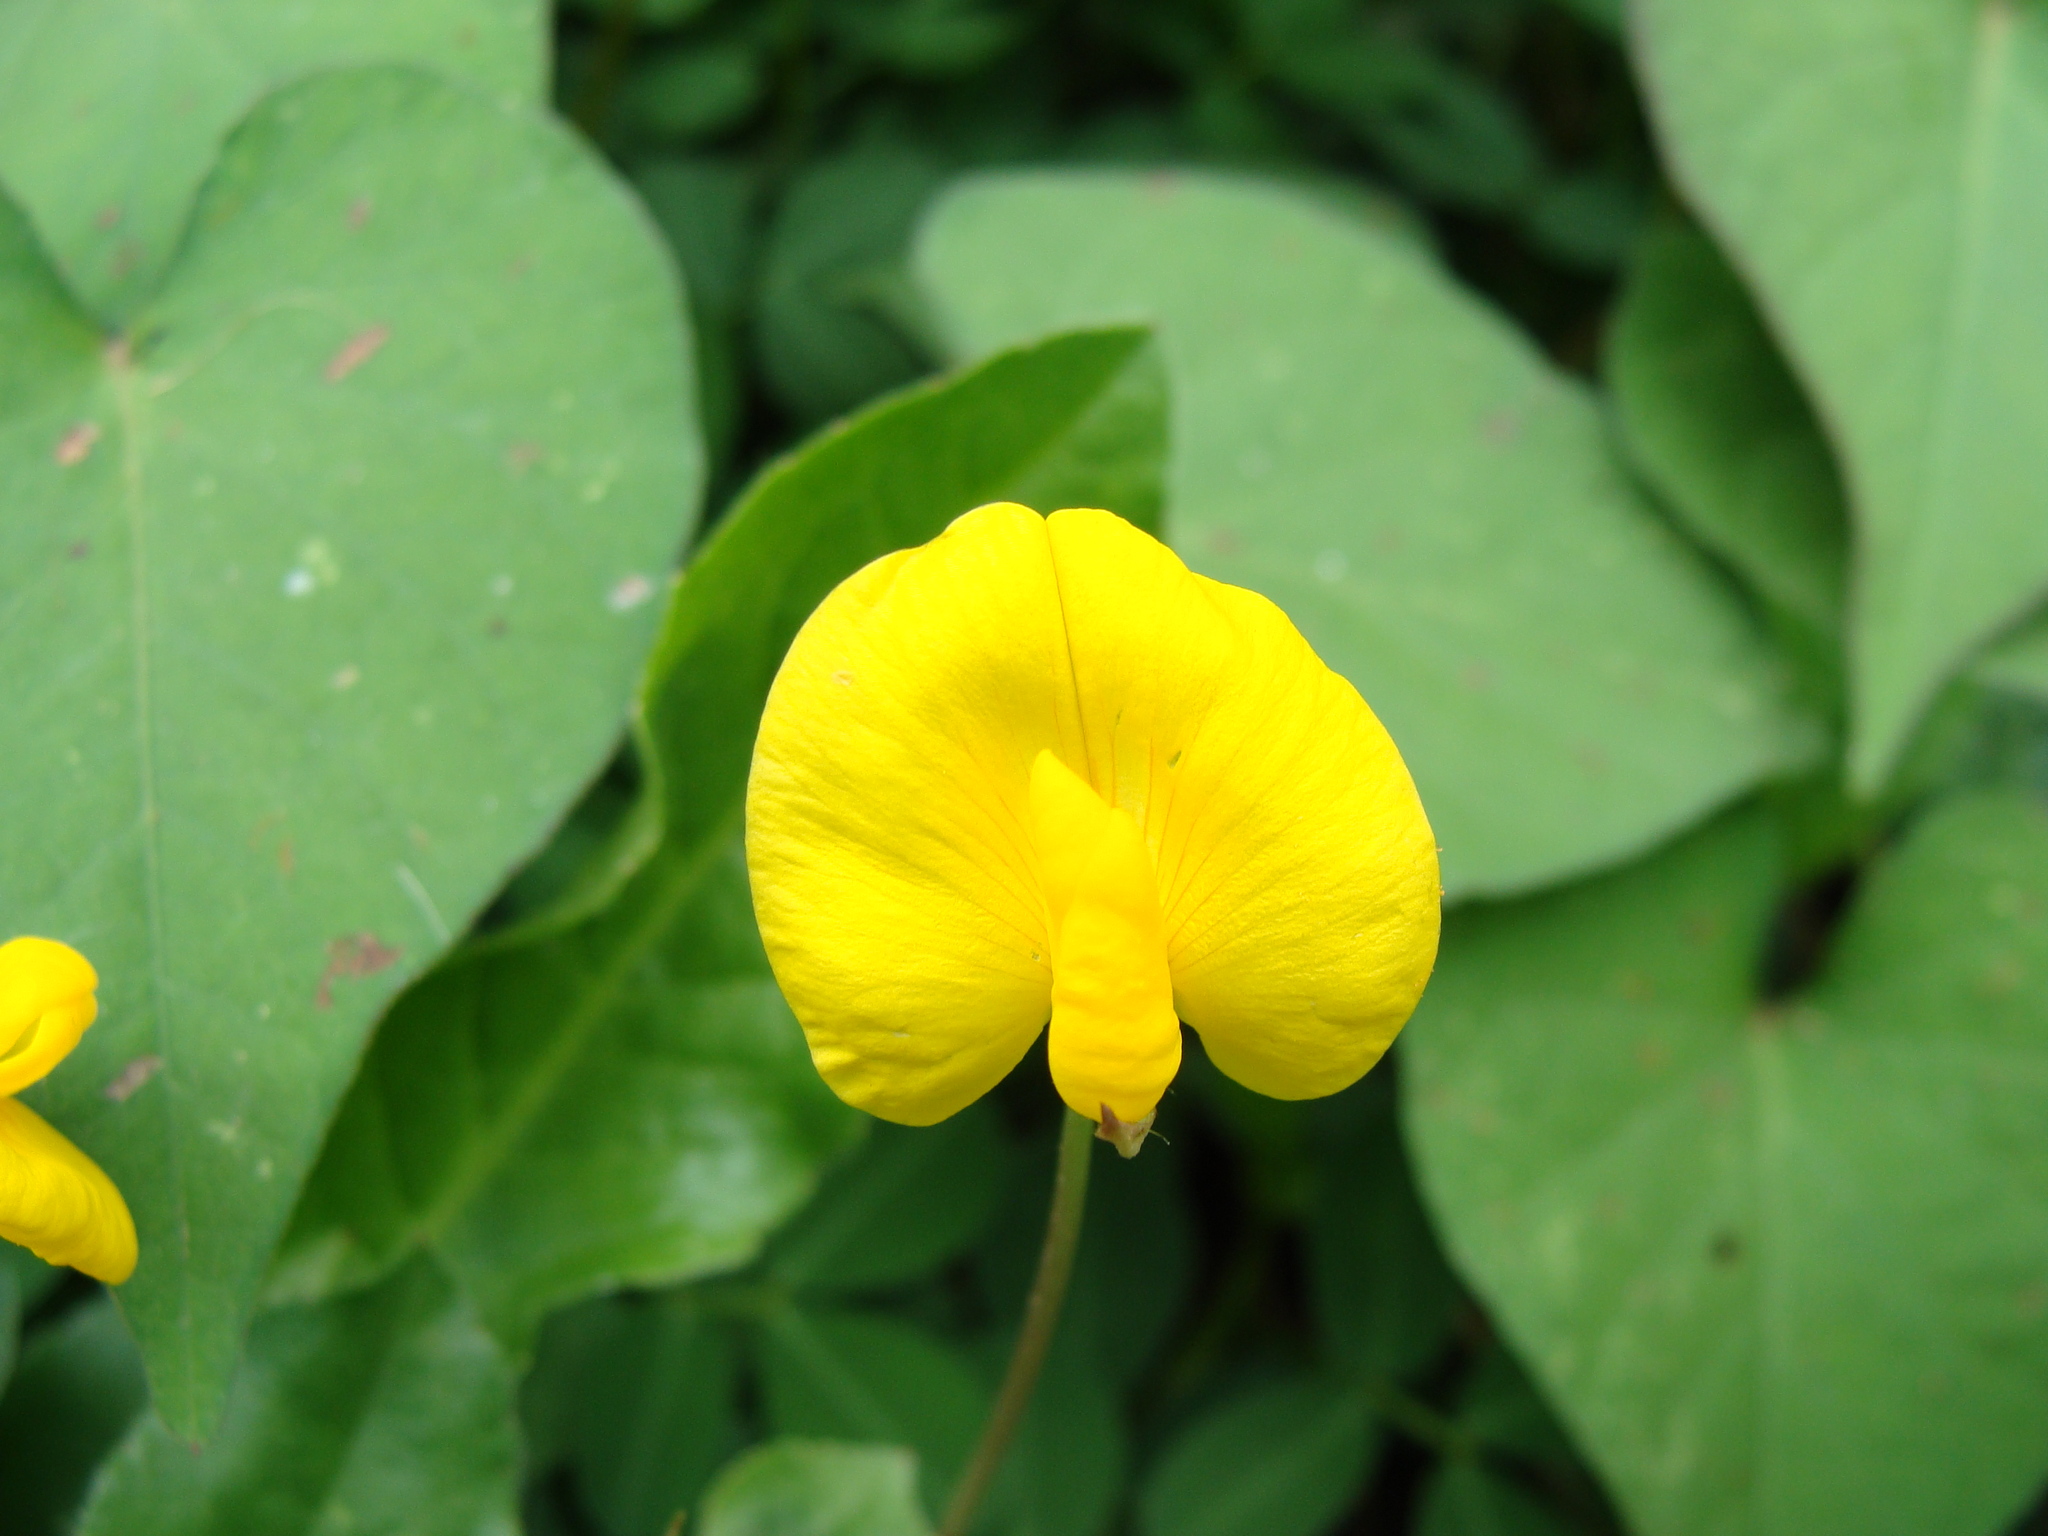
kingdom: Plantae
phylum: Tracheophyta
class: Magnoliopsida
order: Fabales
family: Fabaceae
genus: Arachis
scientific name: Arachis pintoi
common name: Pinto peanut
